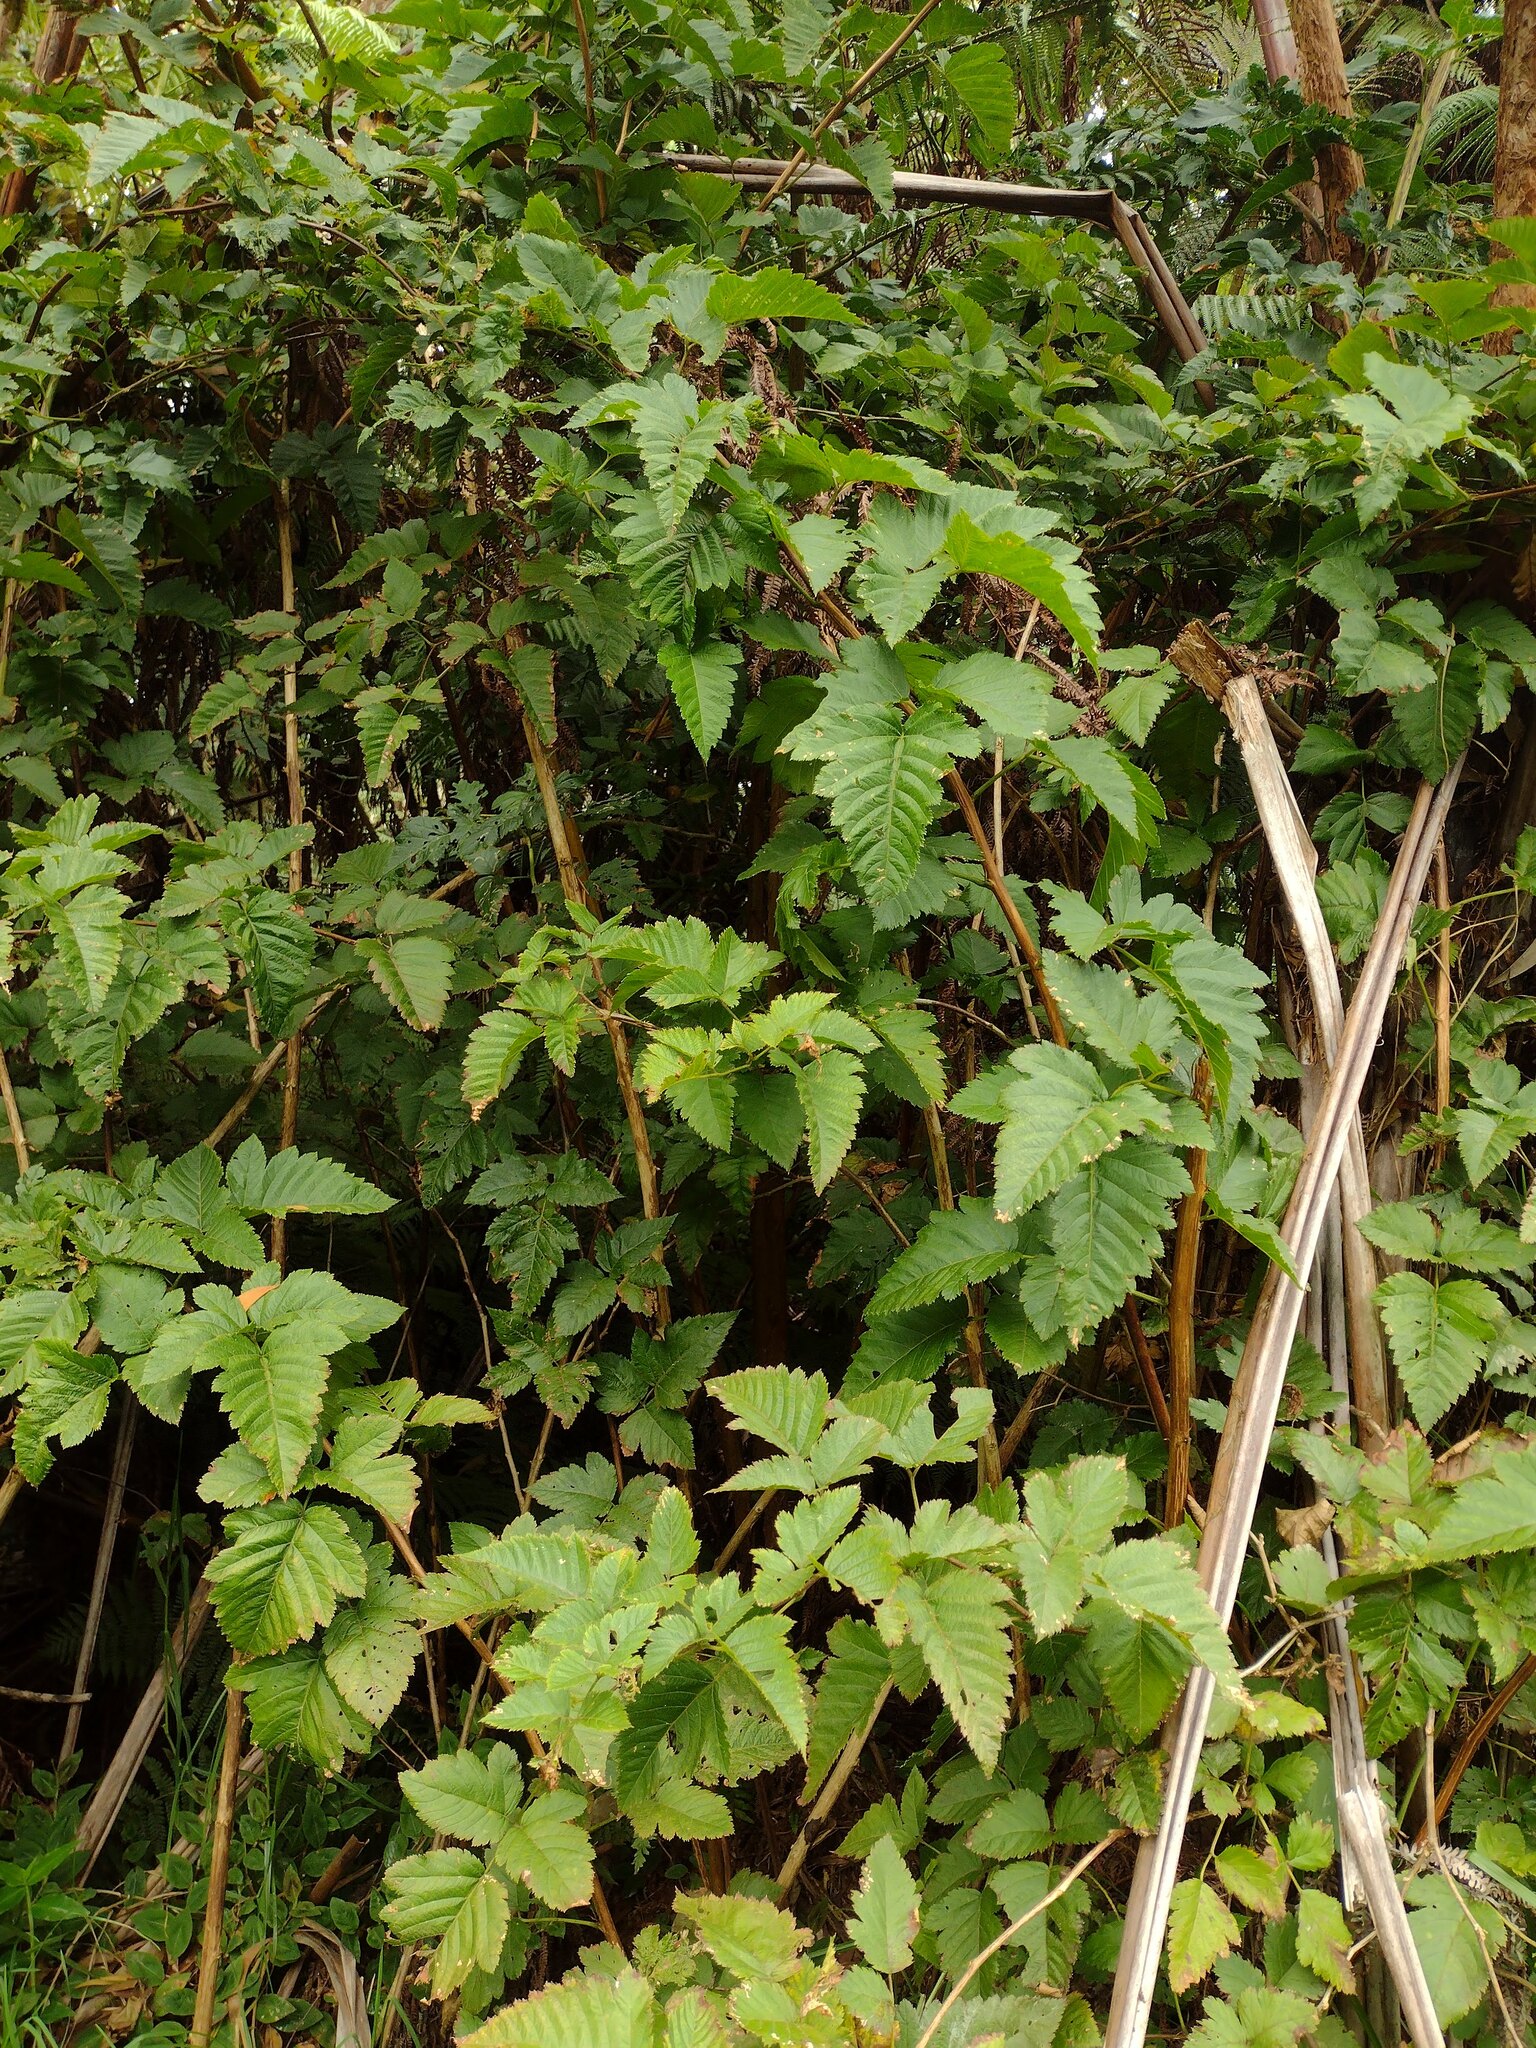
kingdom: Plantae
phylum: Tracheophyta
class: Magnoliopsida
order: Rosales
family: Rosaceae
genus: Rubus
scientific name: Rubus hawaiensis
